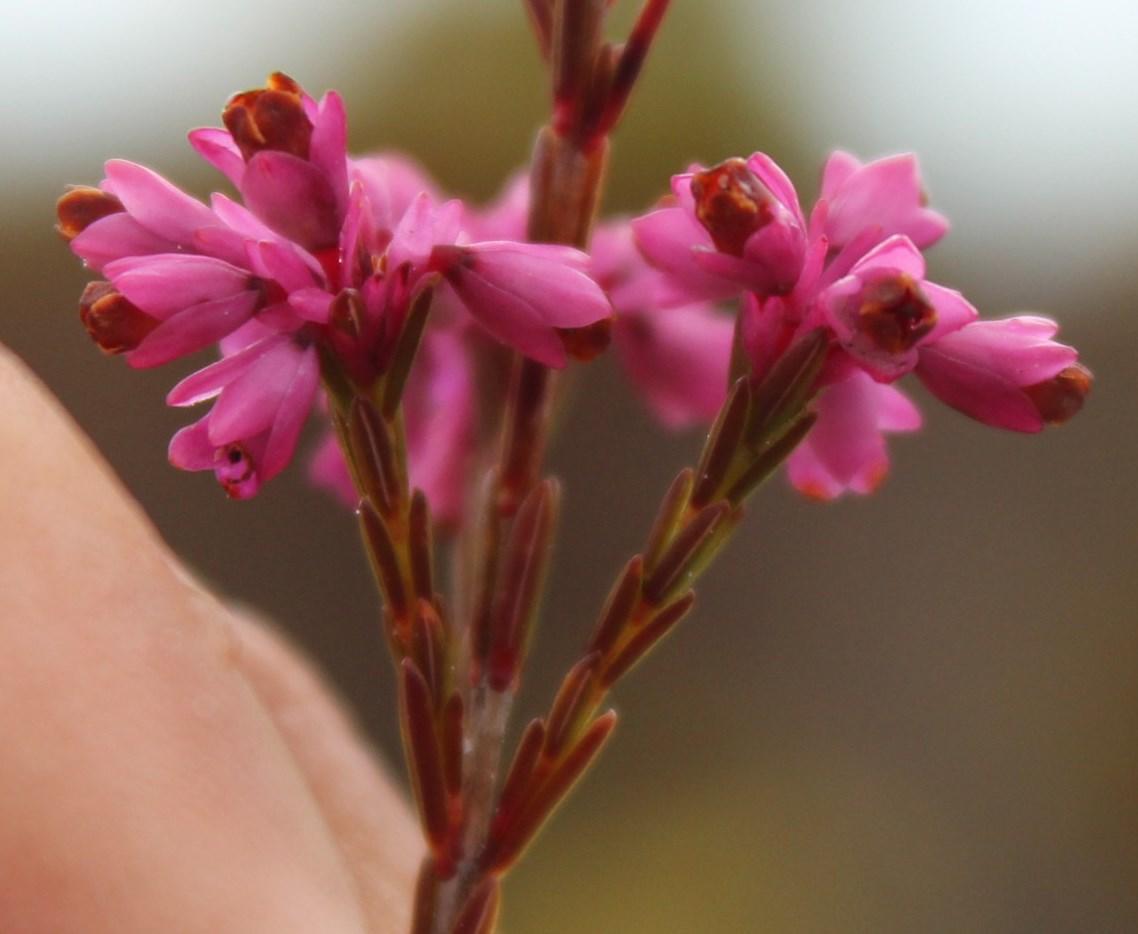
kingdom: Plantae
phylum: Tracheophyta
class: Magnoliopsida
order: Ericales
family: Ericaceae
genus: Erica
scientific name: Erica corifolia
